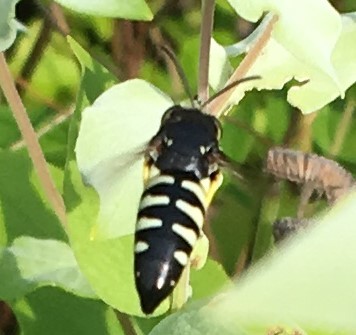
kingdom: Animalia
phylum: Arthropoda
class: Insecta
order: Hymenoptera
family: Crabronidae
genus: Bicyrtes
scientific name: Bicyrtes quadrifasciatus
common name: Four-banded stink bug hunter wasp
